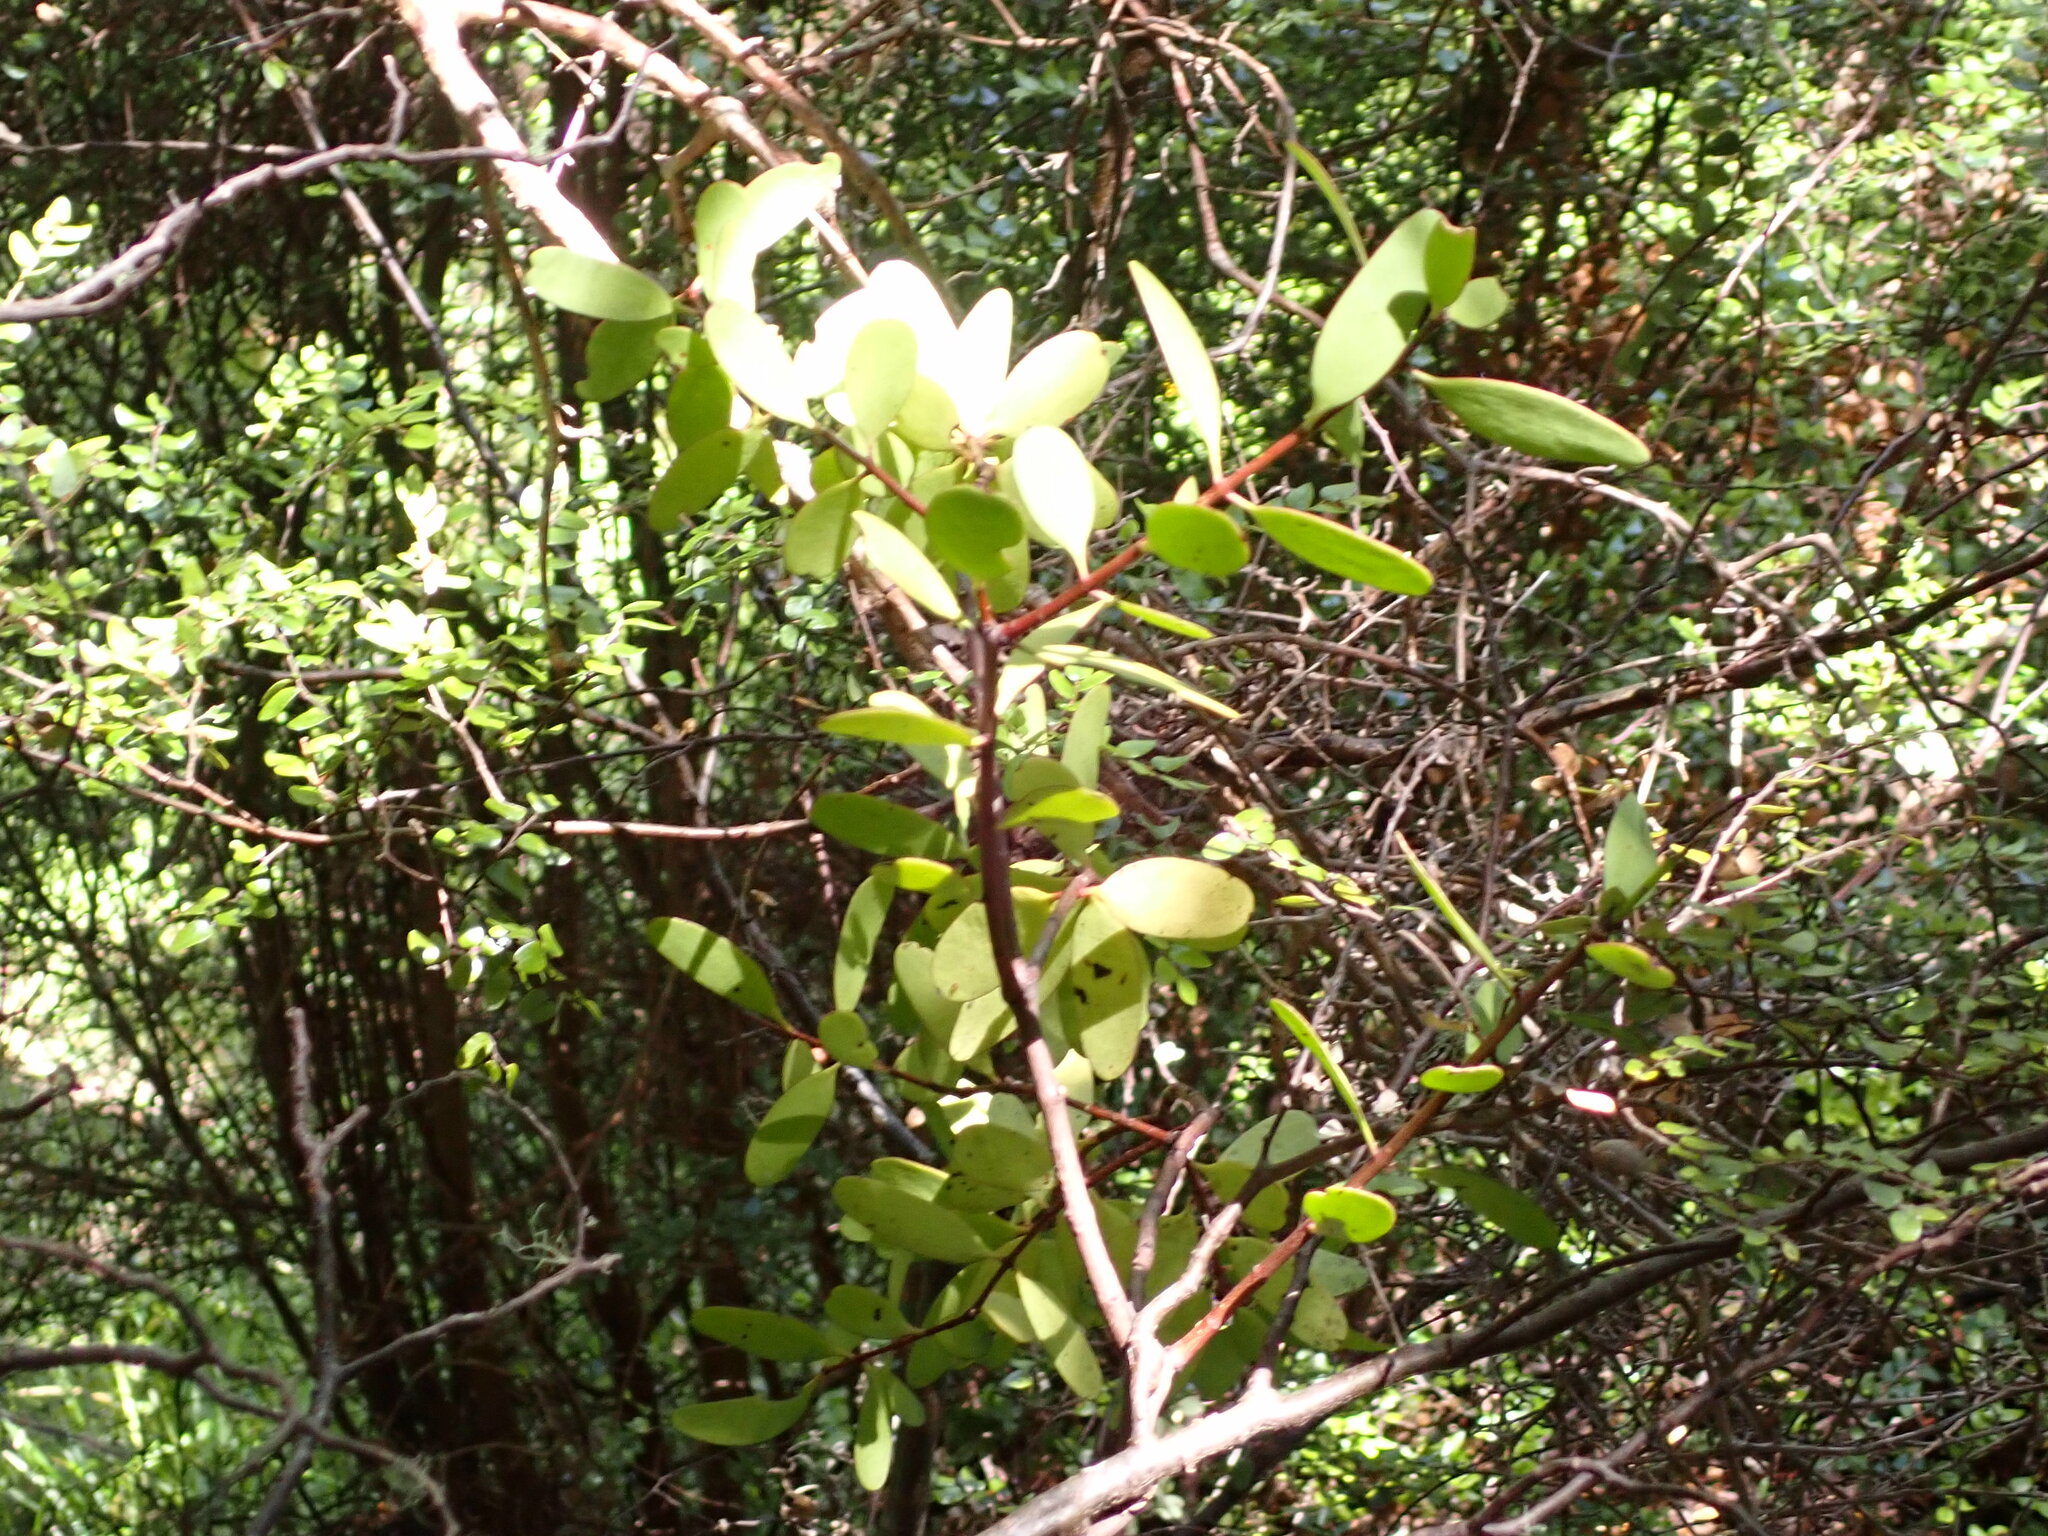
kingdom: Plantae
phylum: Tracheophyta
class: Magnoliopsida
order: Santalales
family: Loranthaceae
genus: Alepis
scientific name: Alepis flavida
